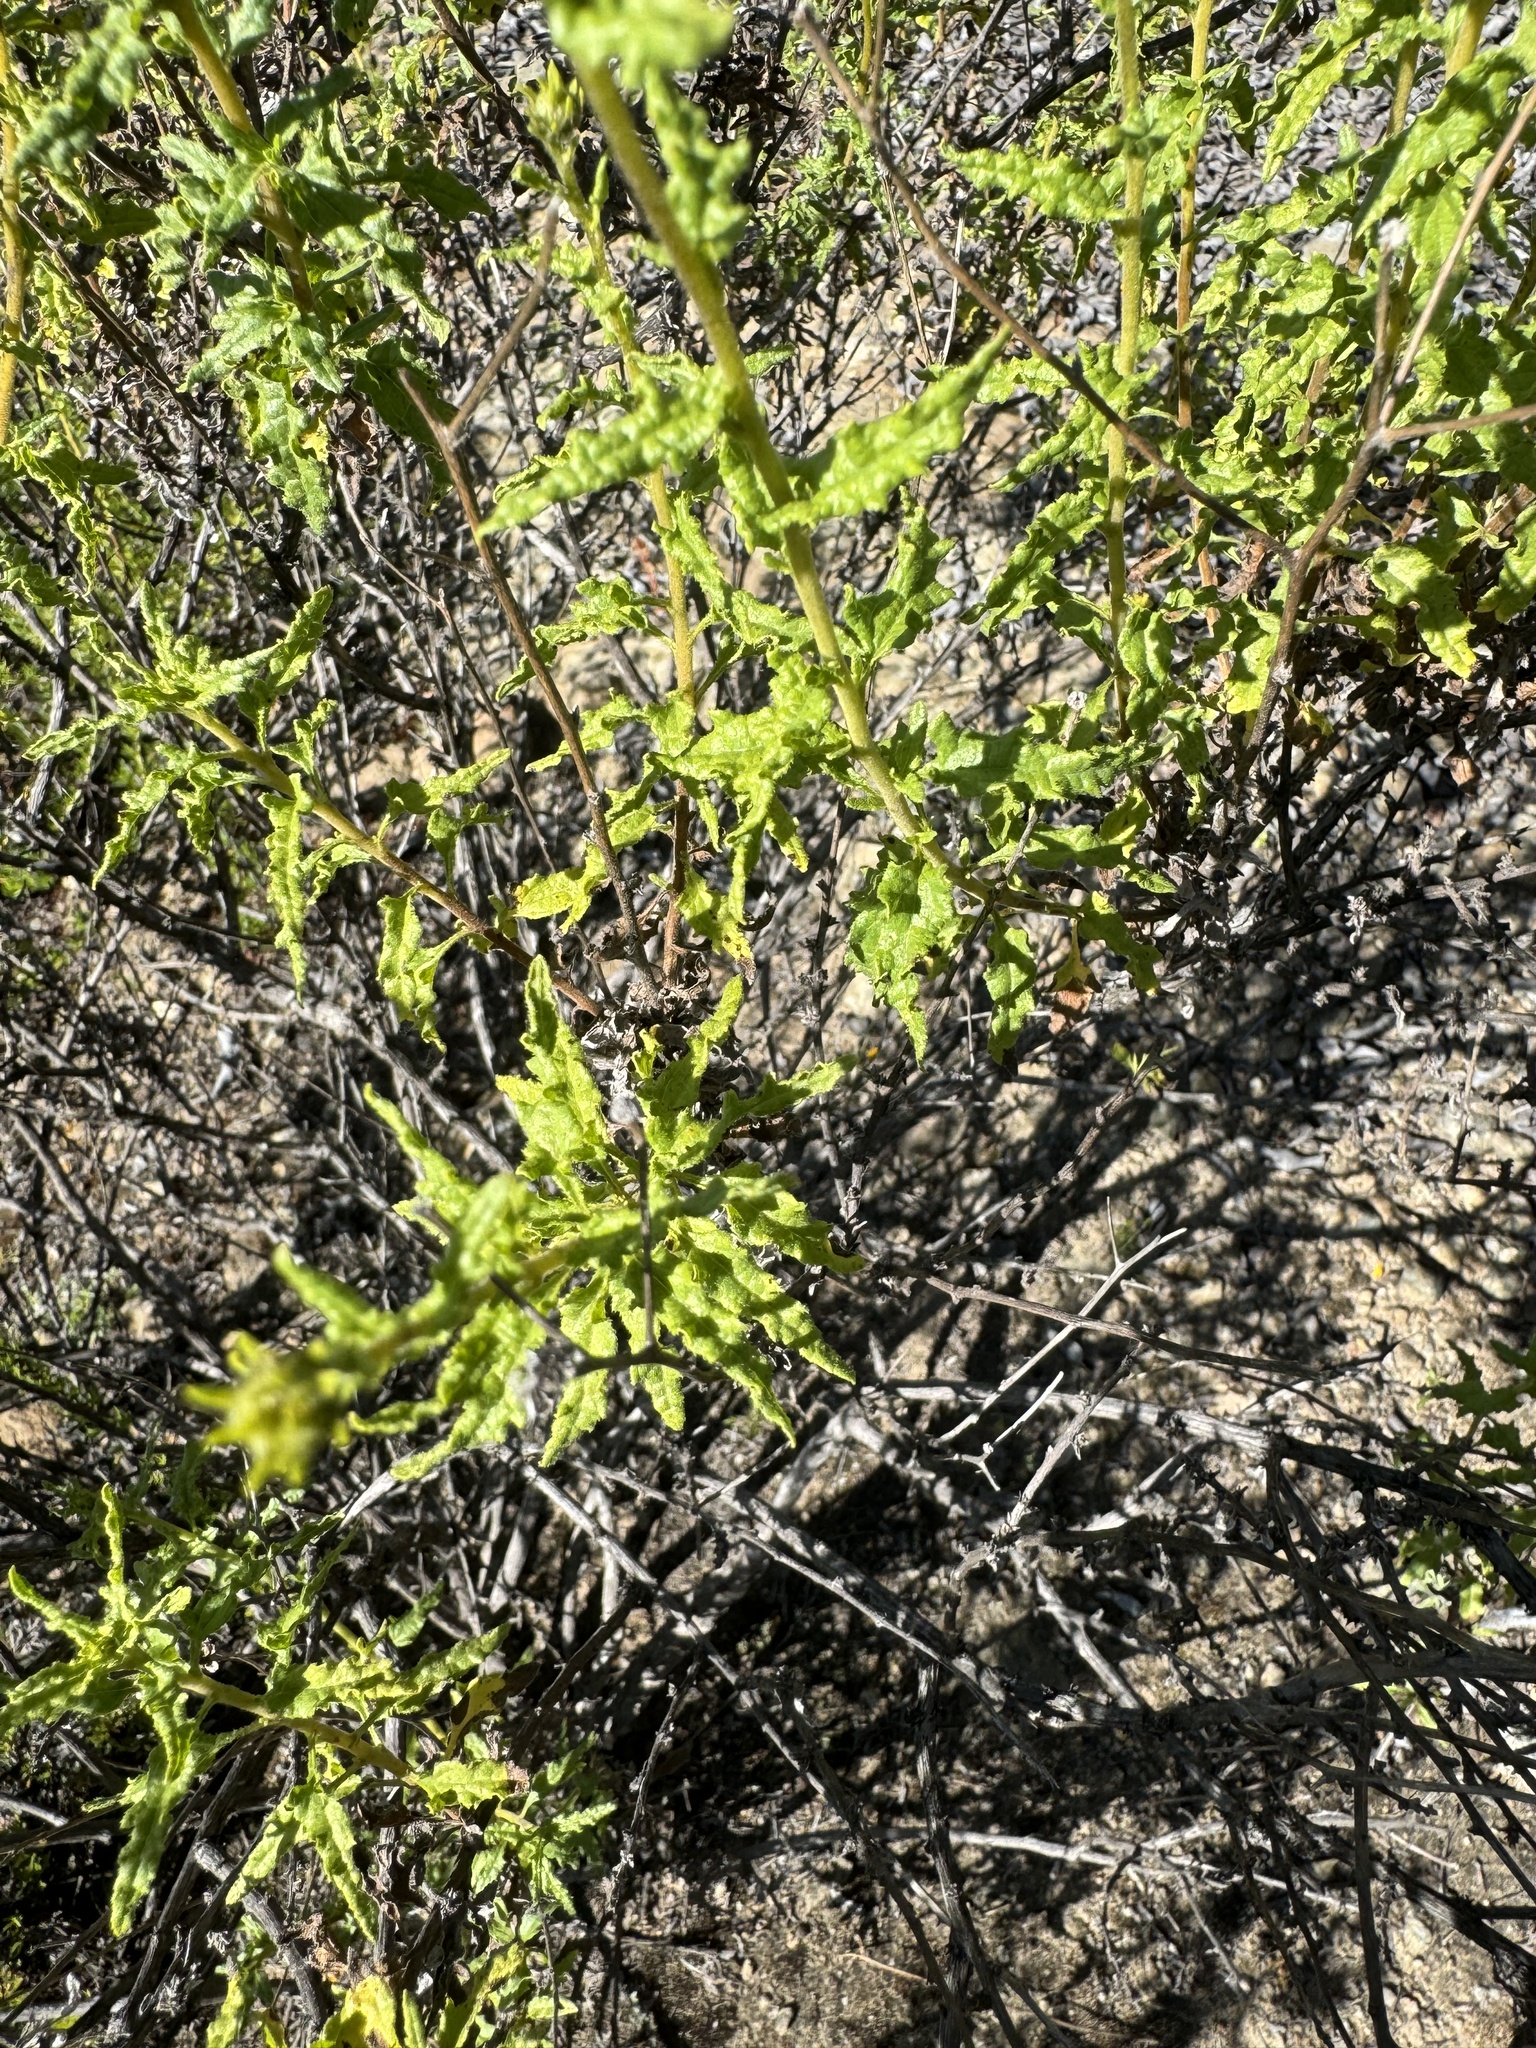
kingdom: Plantae
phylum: Tracheophyta
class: Magnoliopsida
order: Asterales
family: Asteraceae
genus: Bahiopsis
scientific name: Bahiopsis laciniata
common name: San diego county viguiera
